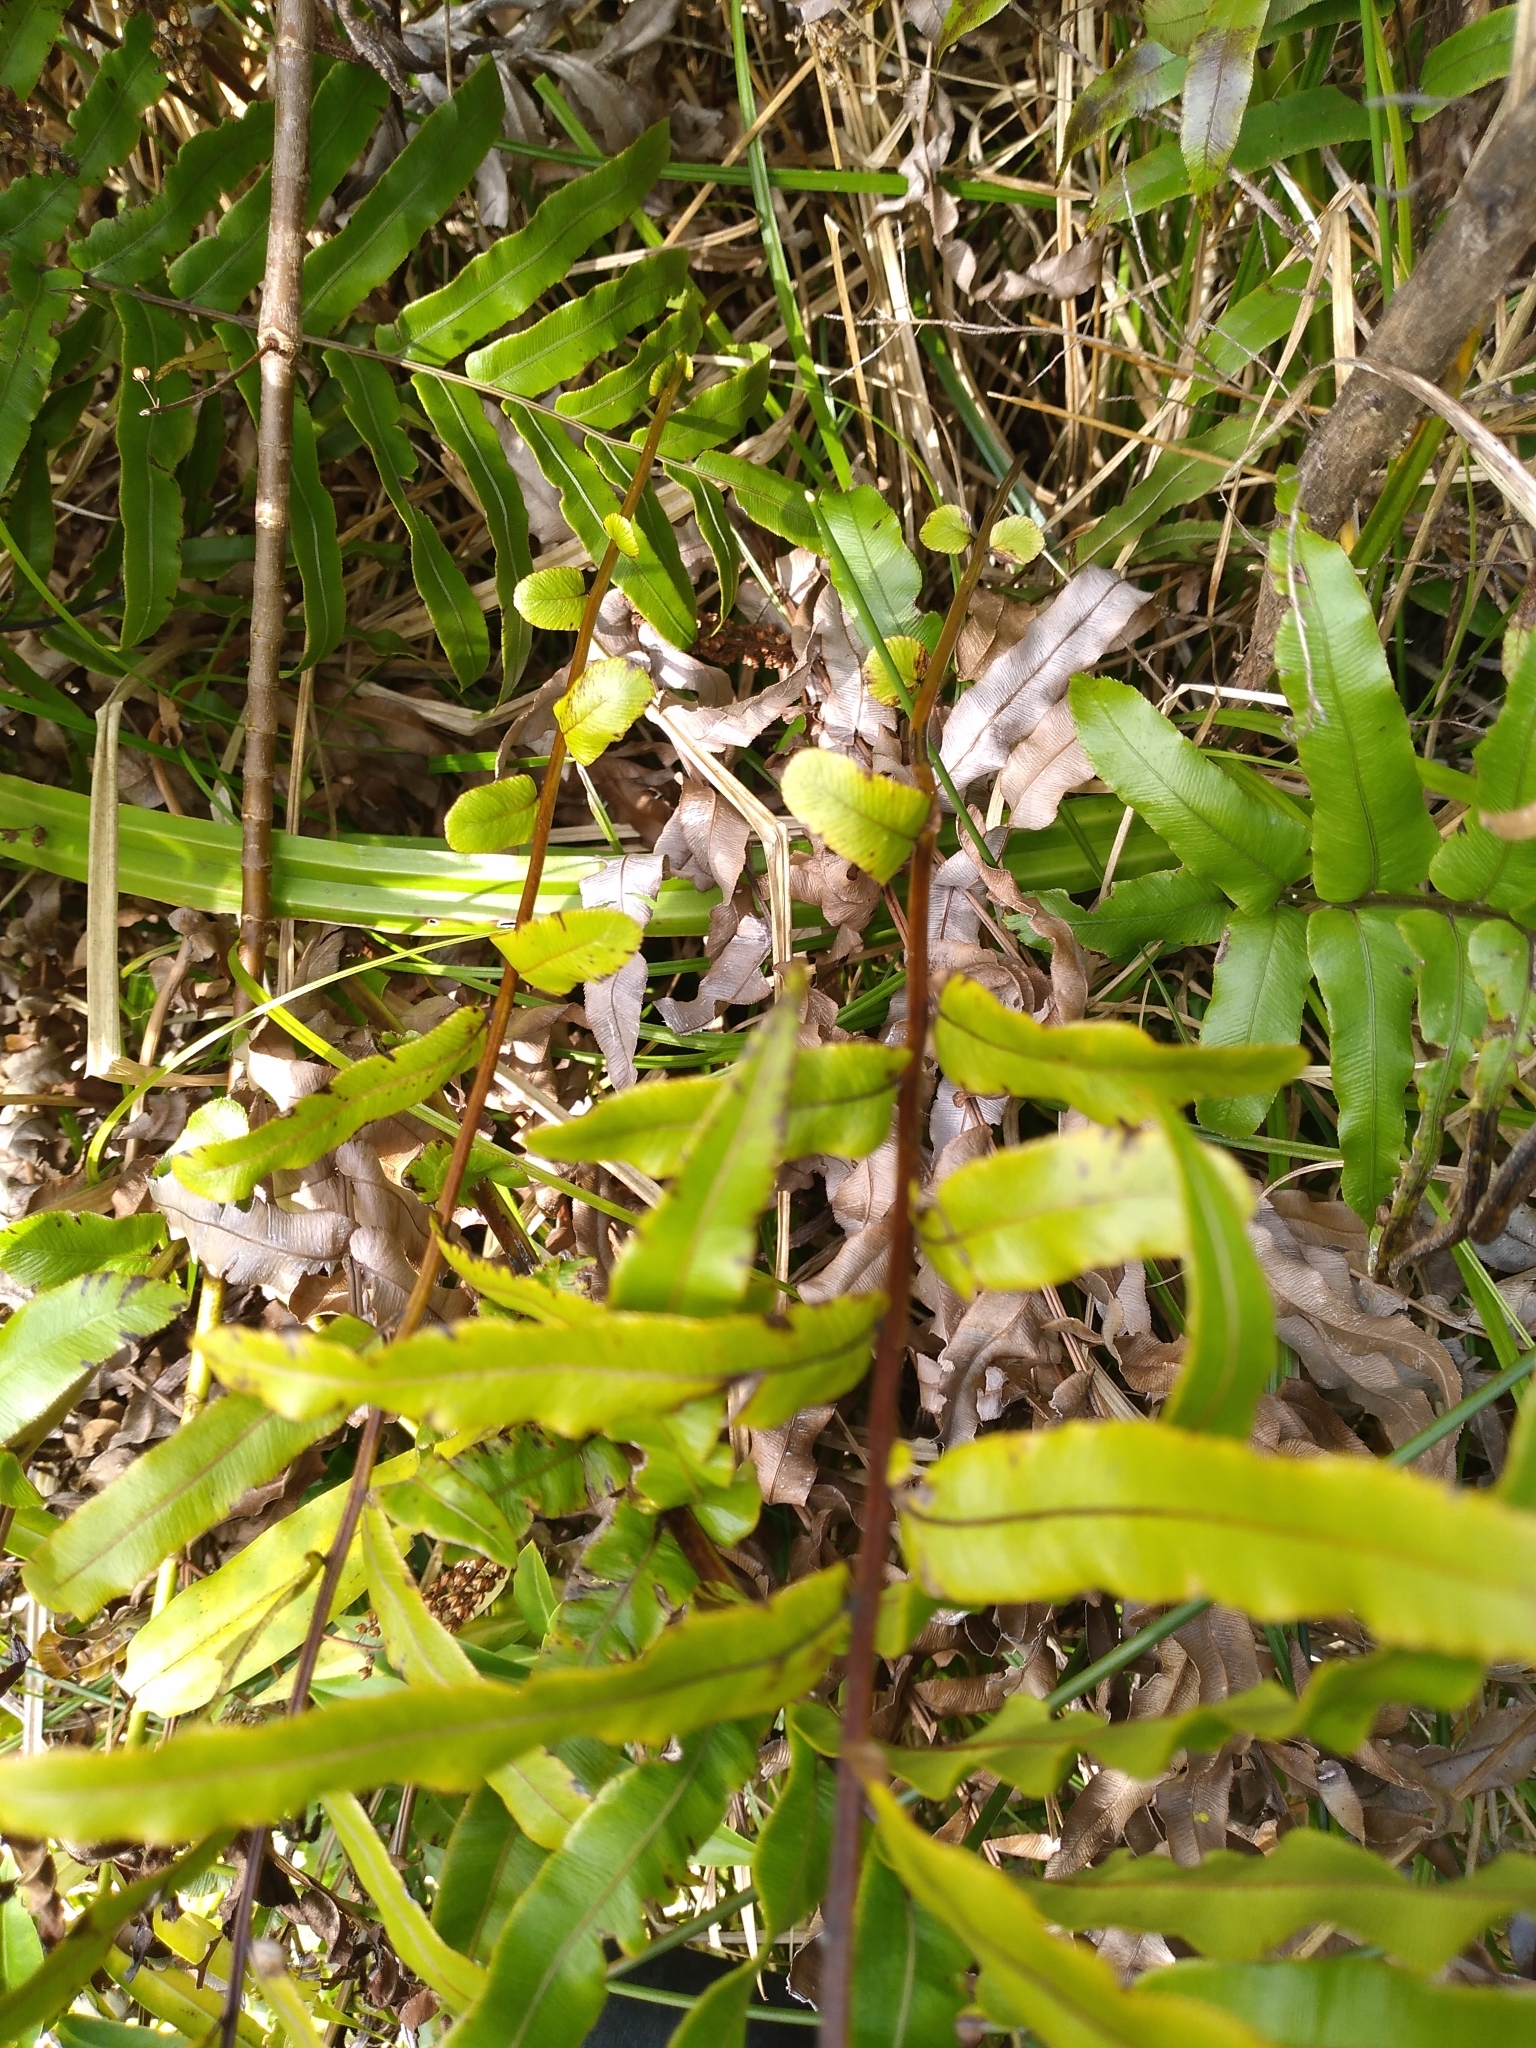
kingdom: Plantae
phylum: Tracheophyta
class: Polypodiopsida
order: Polypodiales
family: Blechnaceae
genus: Parablechnum
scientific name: Parablechnum minus
